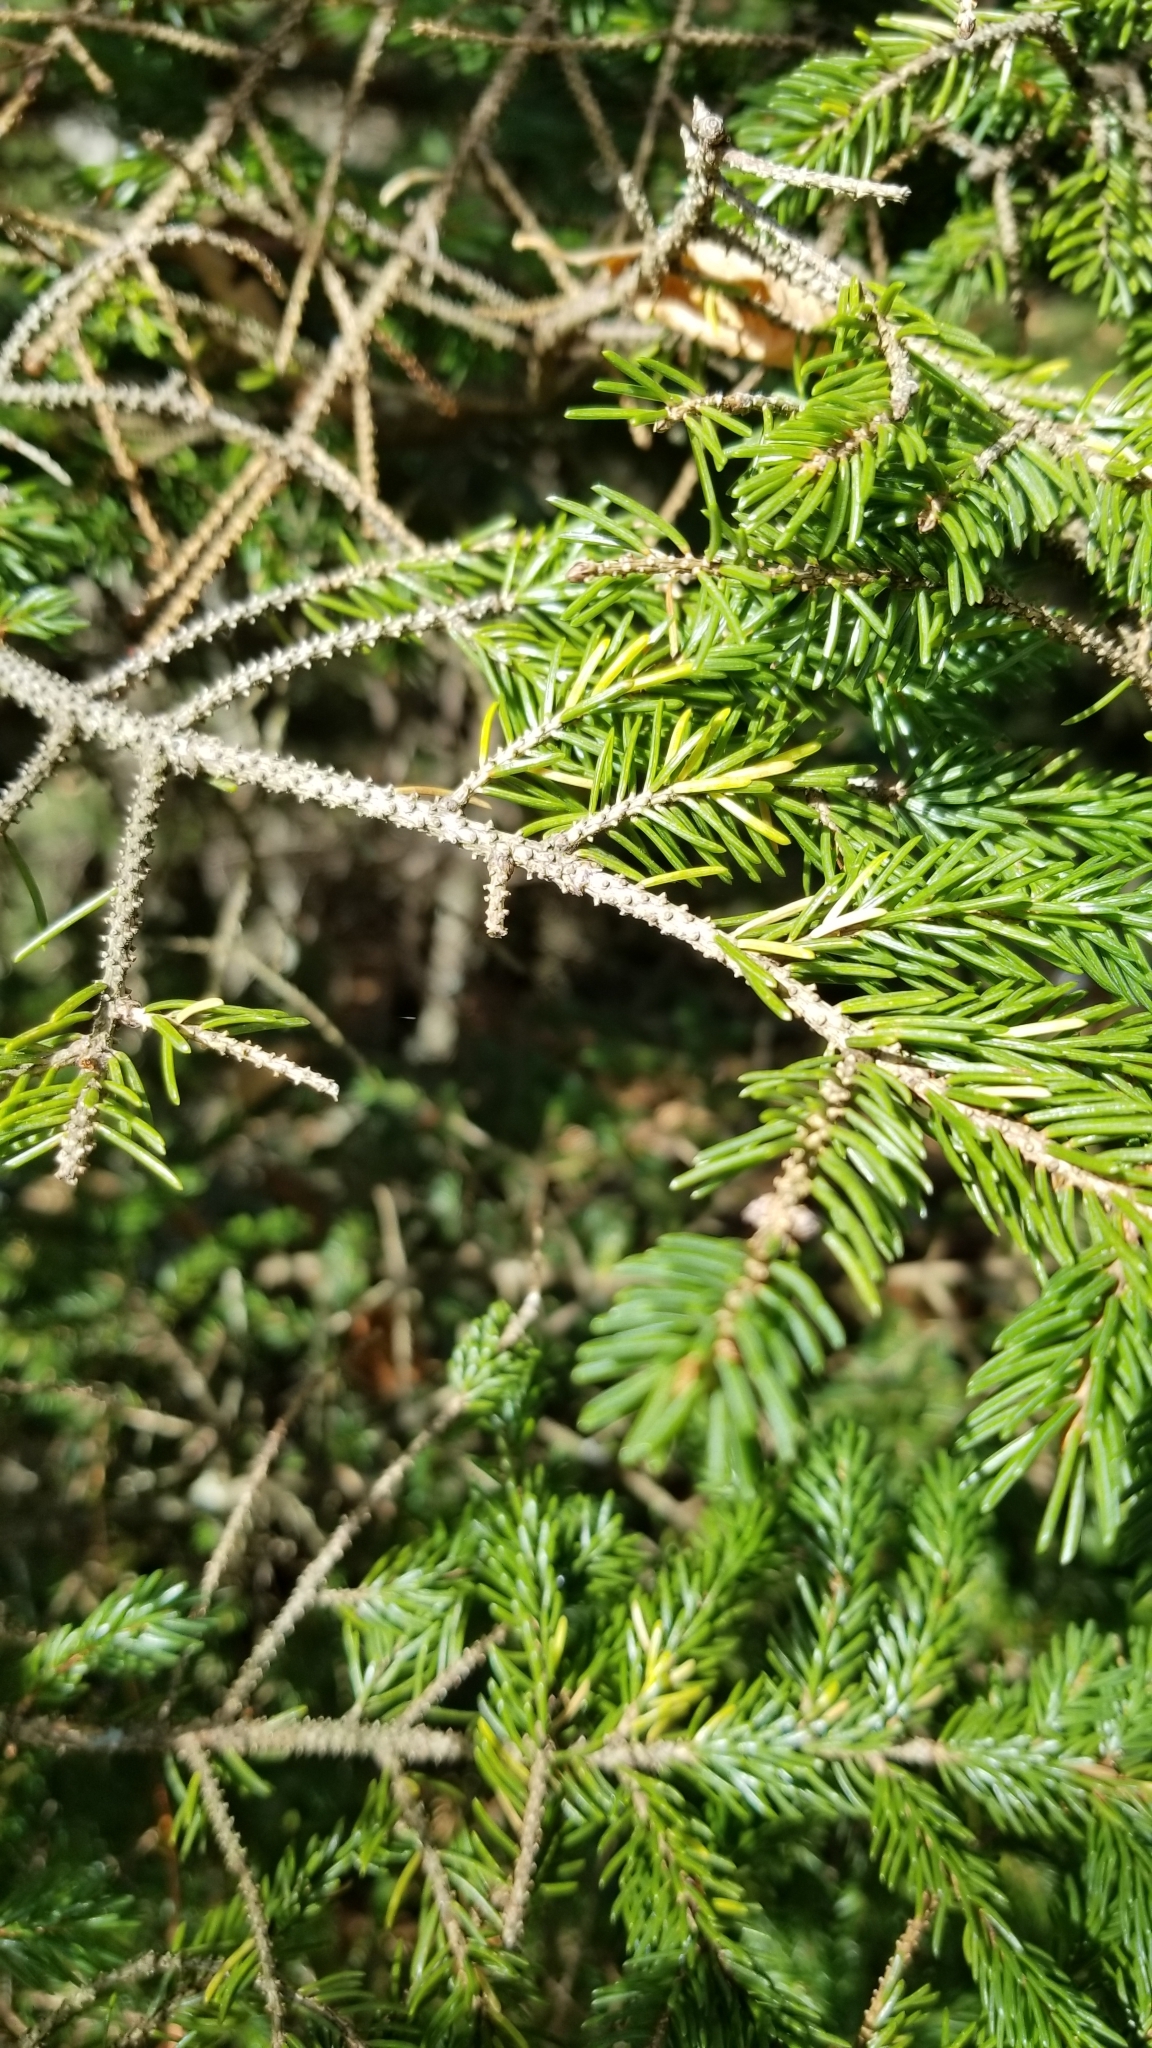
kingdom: Plantae
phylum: Tracheophyta
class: Pinopsida
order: Pinales
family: Pinaceae
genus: Picea
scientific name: Picea rubens
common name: Red spruce
